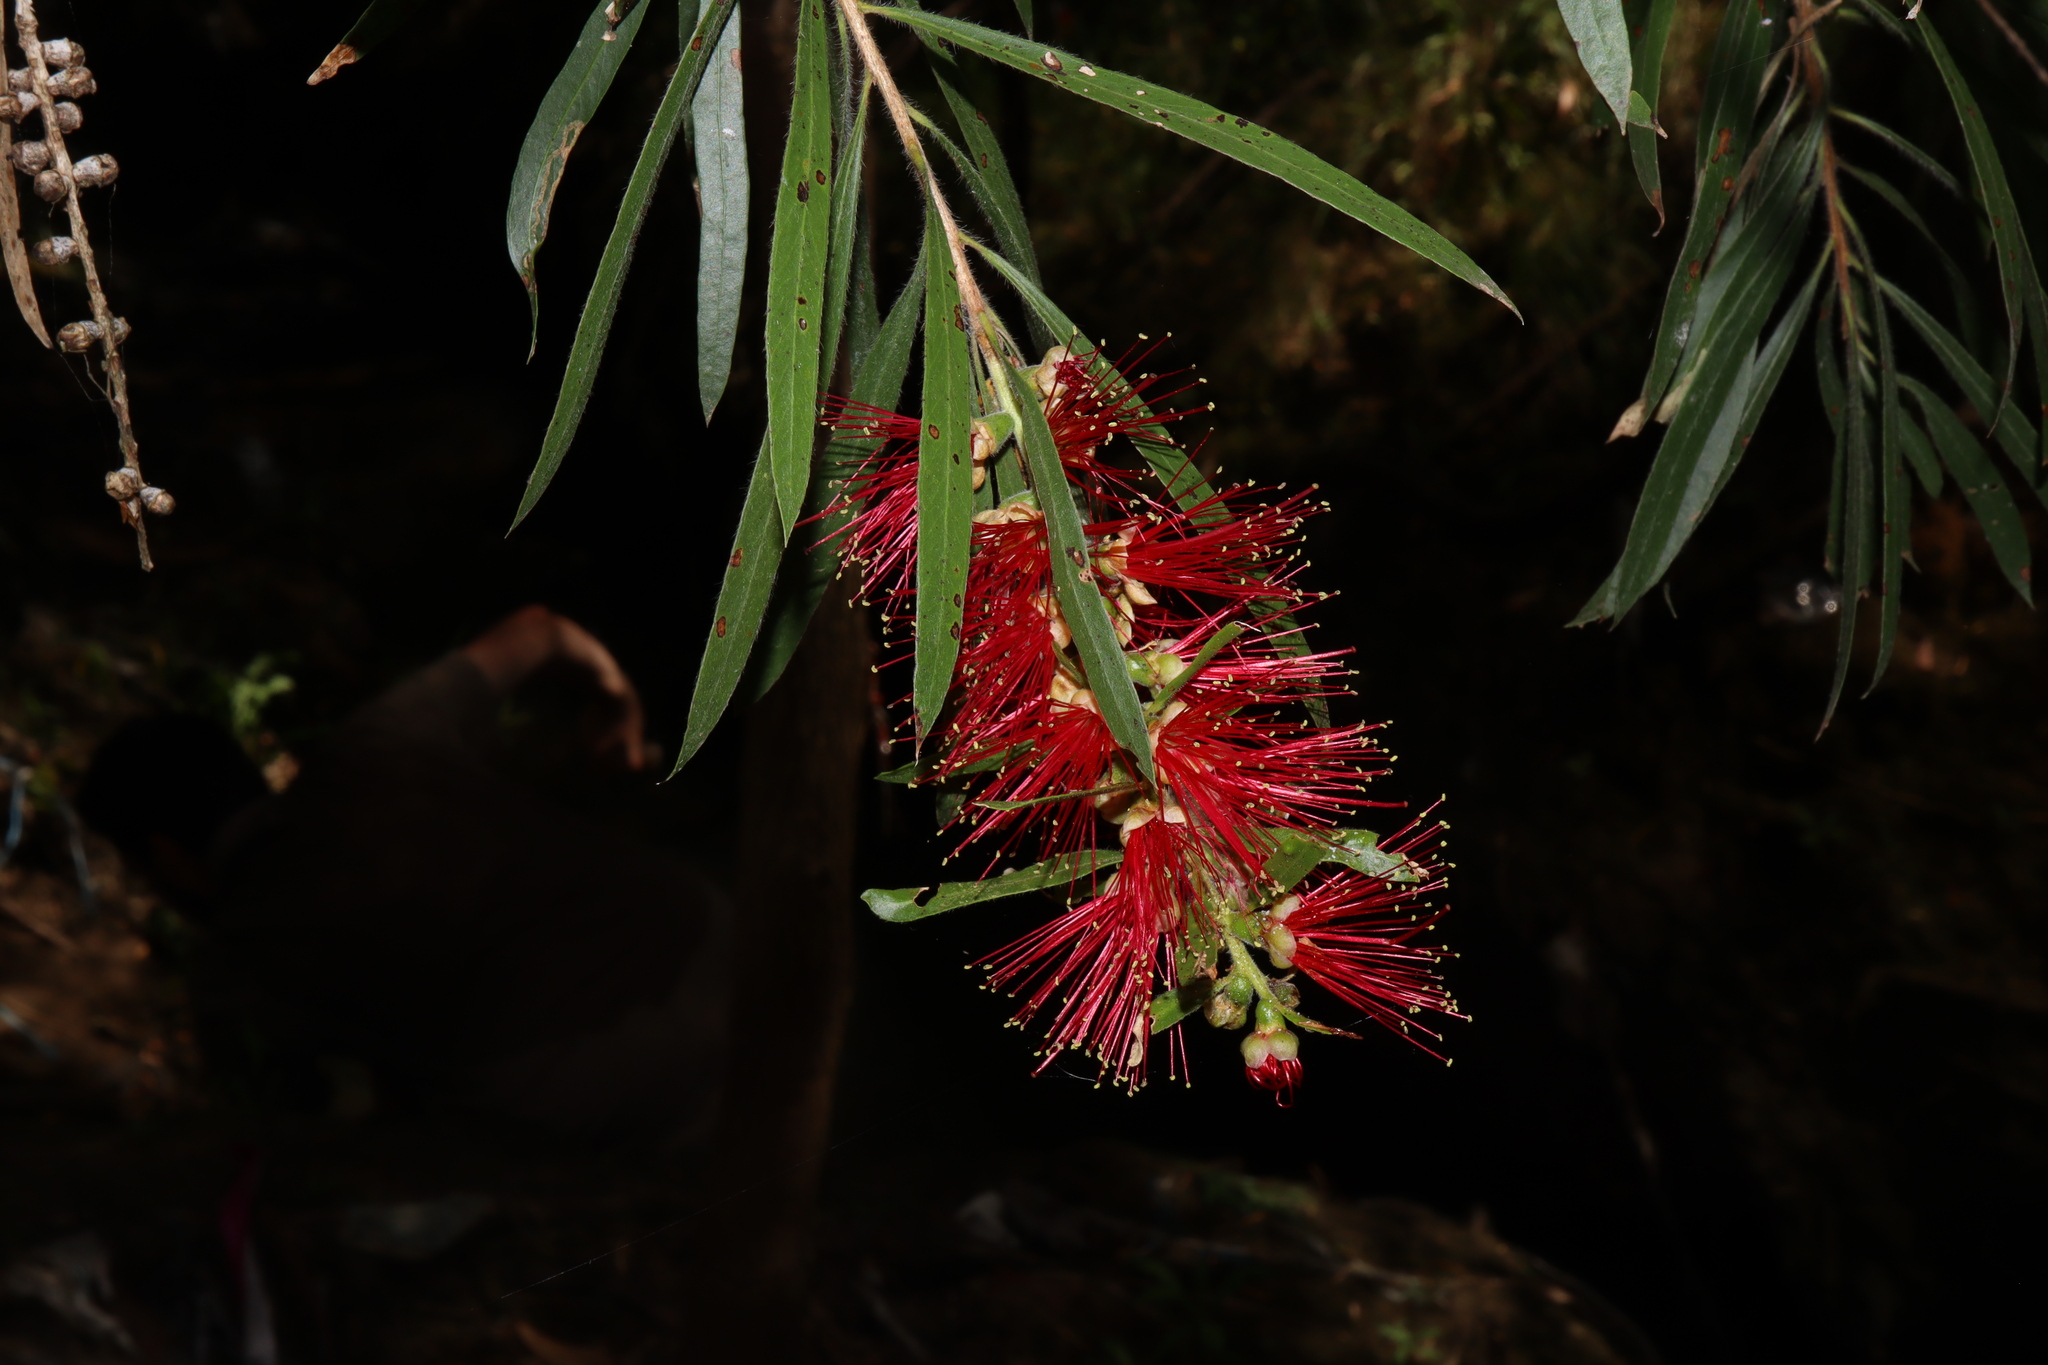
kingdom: Plantae
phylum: Tracheophyta
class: Magnoliopsida
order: Myrtales
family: Myrtaceae
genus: Callistemon
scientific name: Callistemon viminalis
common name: Drooping bottlebrush
